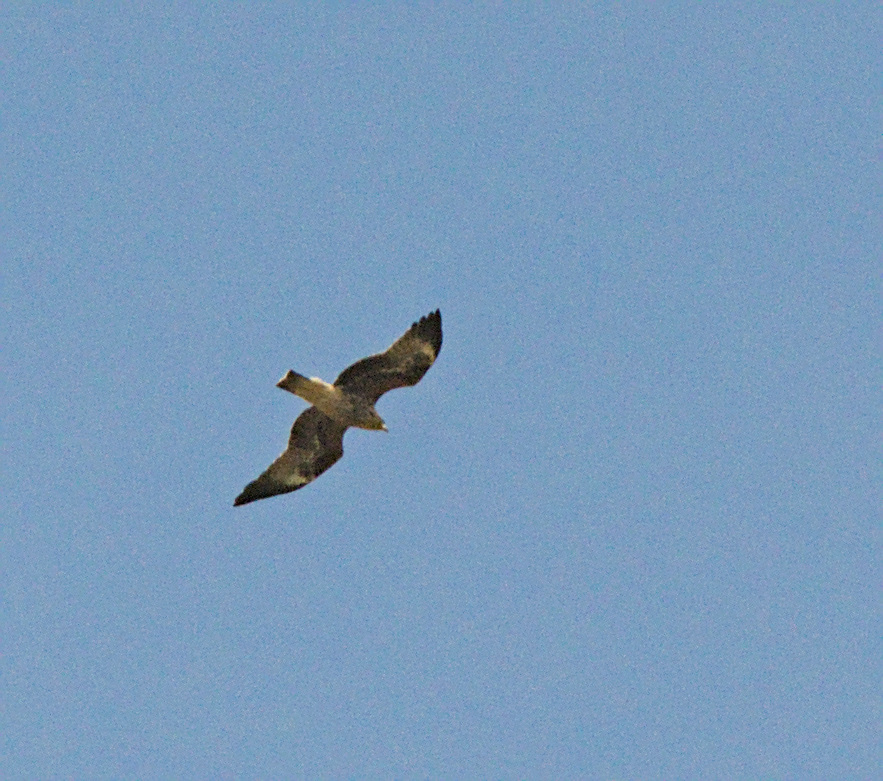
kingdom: Animalia
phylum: Chordata
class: Aves
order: Accipitriformes
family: Accipitridae
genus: Milvus
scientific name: Milvus migrans
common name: Black kite
